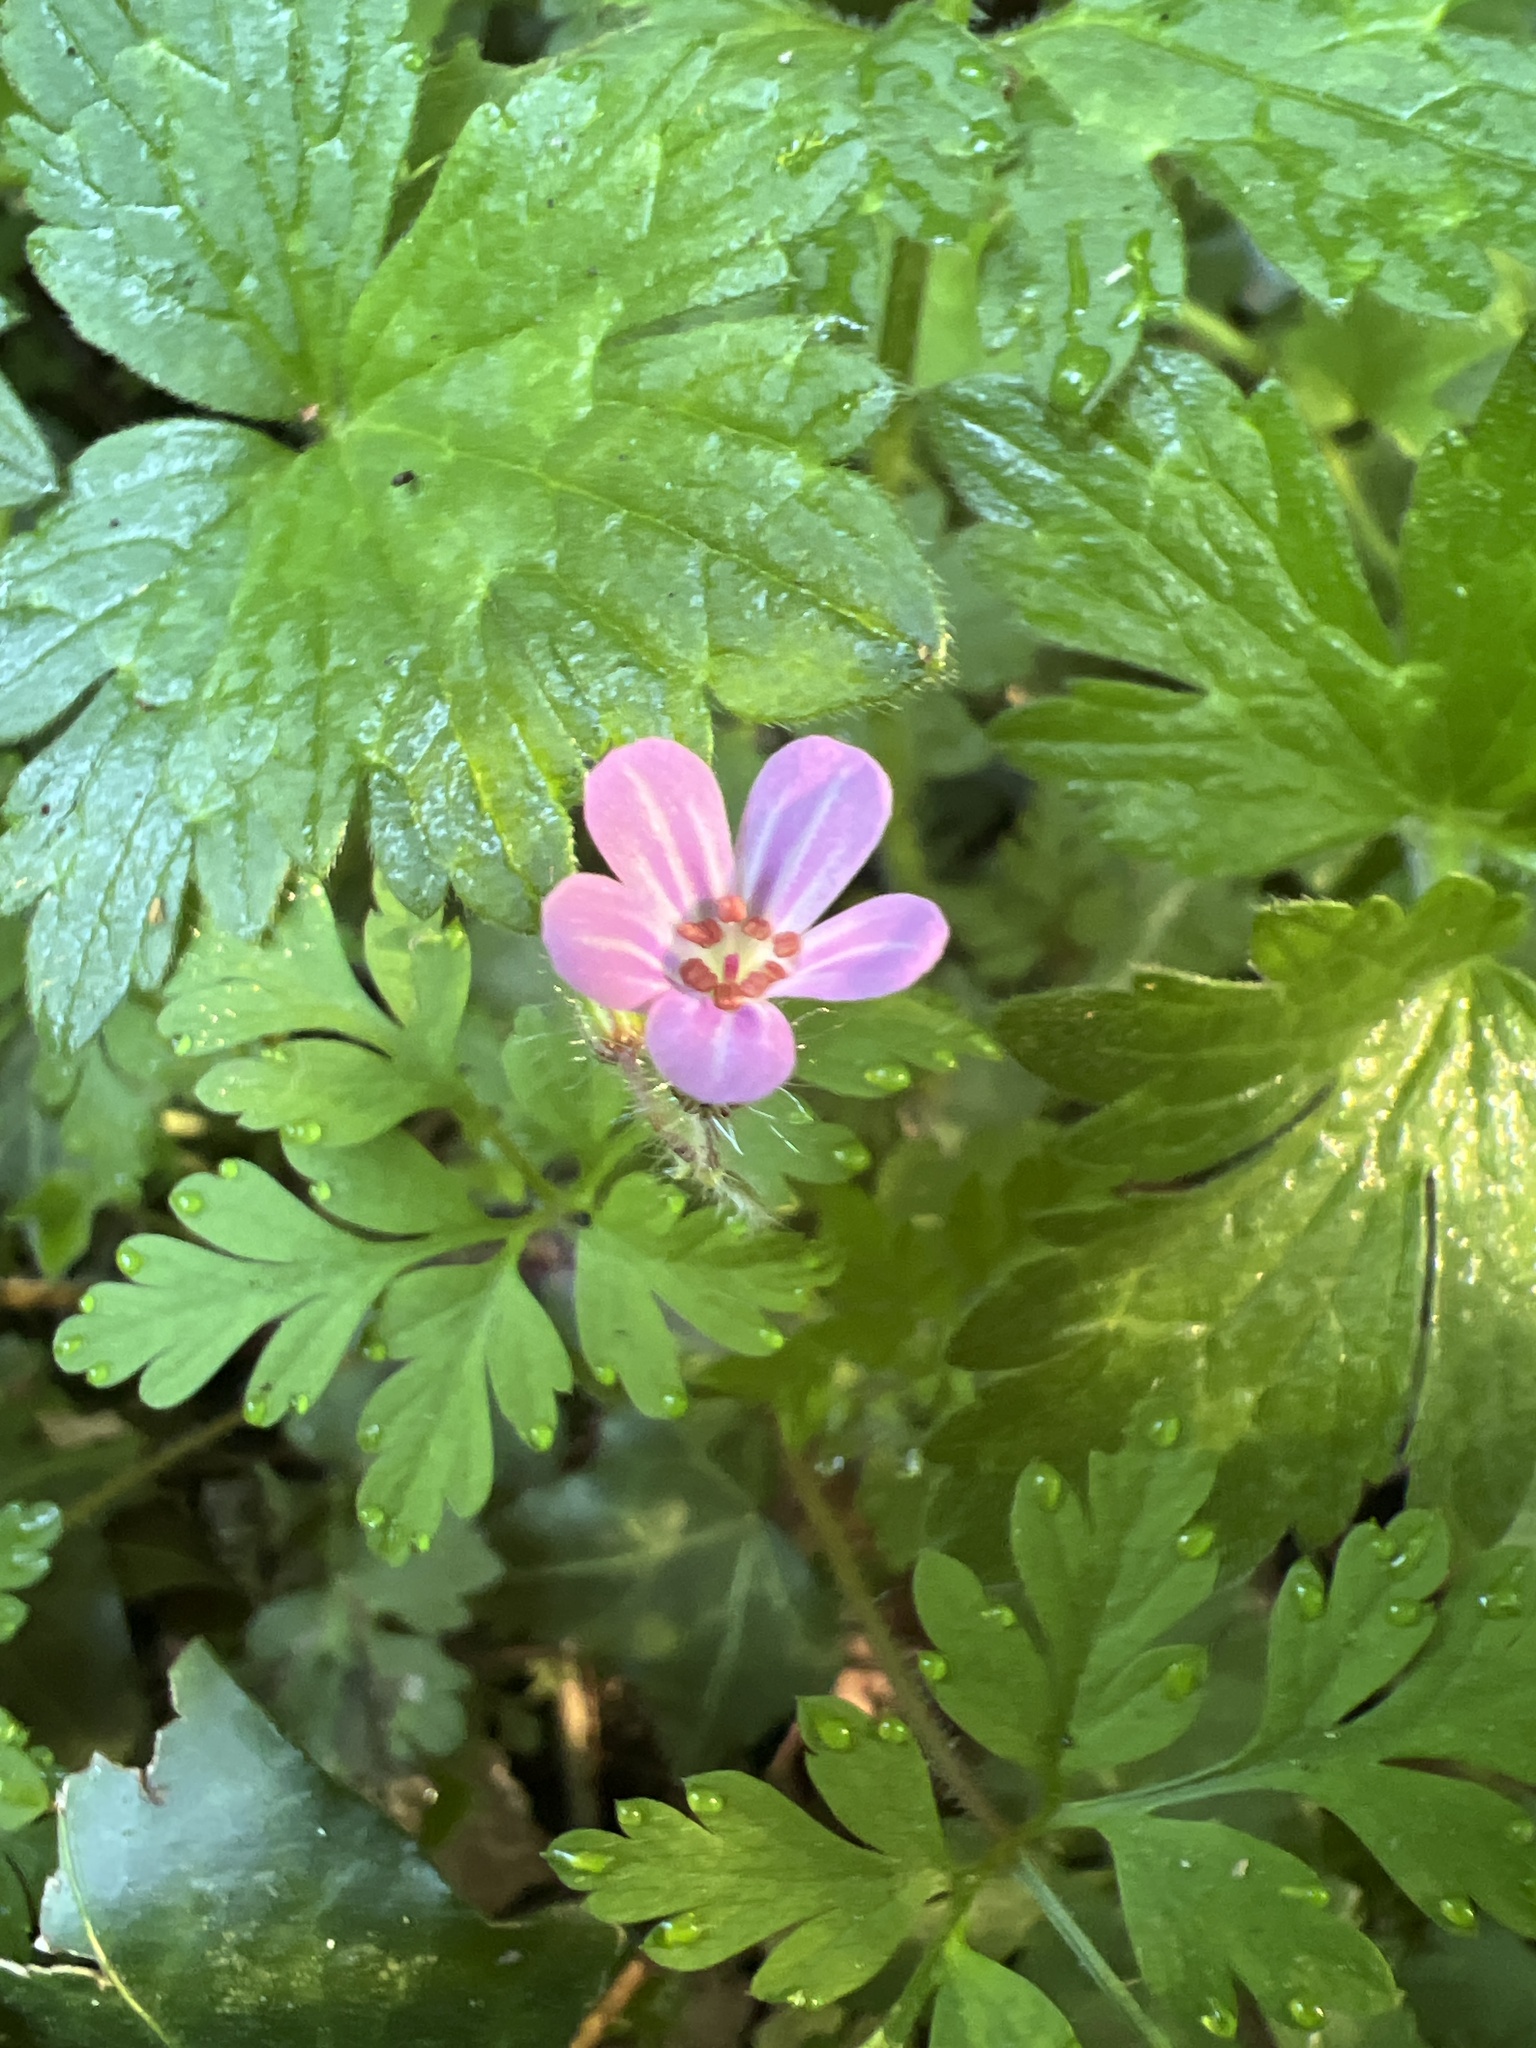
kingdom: Plantae
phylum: Tracheophyta
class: Magnoliopsida
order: Geraniales
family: Geraniaceae
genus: Geranium
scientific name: Geranium robertianum
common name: Herb-robert
